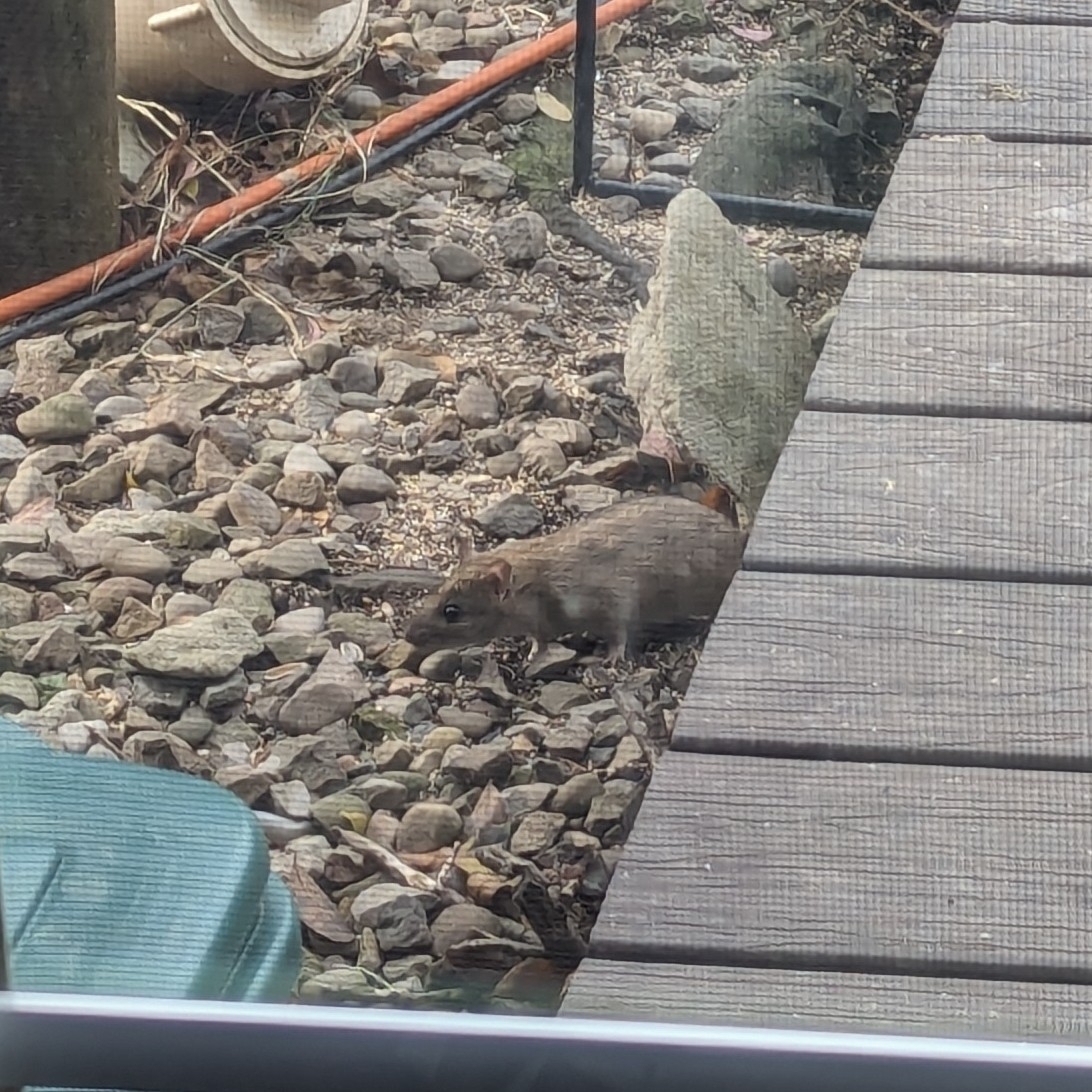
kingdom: Animalia
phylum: Chordata
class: Mammalia
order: Rodentia
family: Muridae
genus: Rattus
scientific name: Rattus norvegicus
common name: Brown rat
